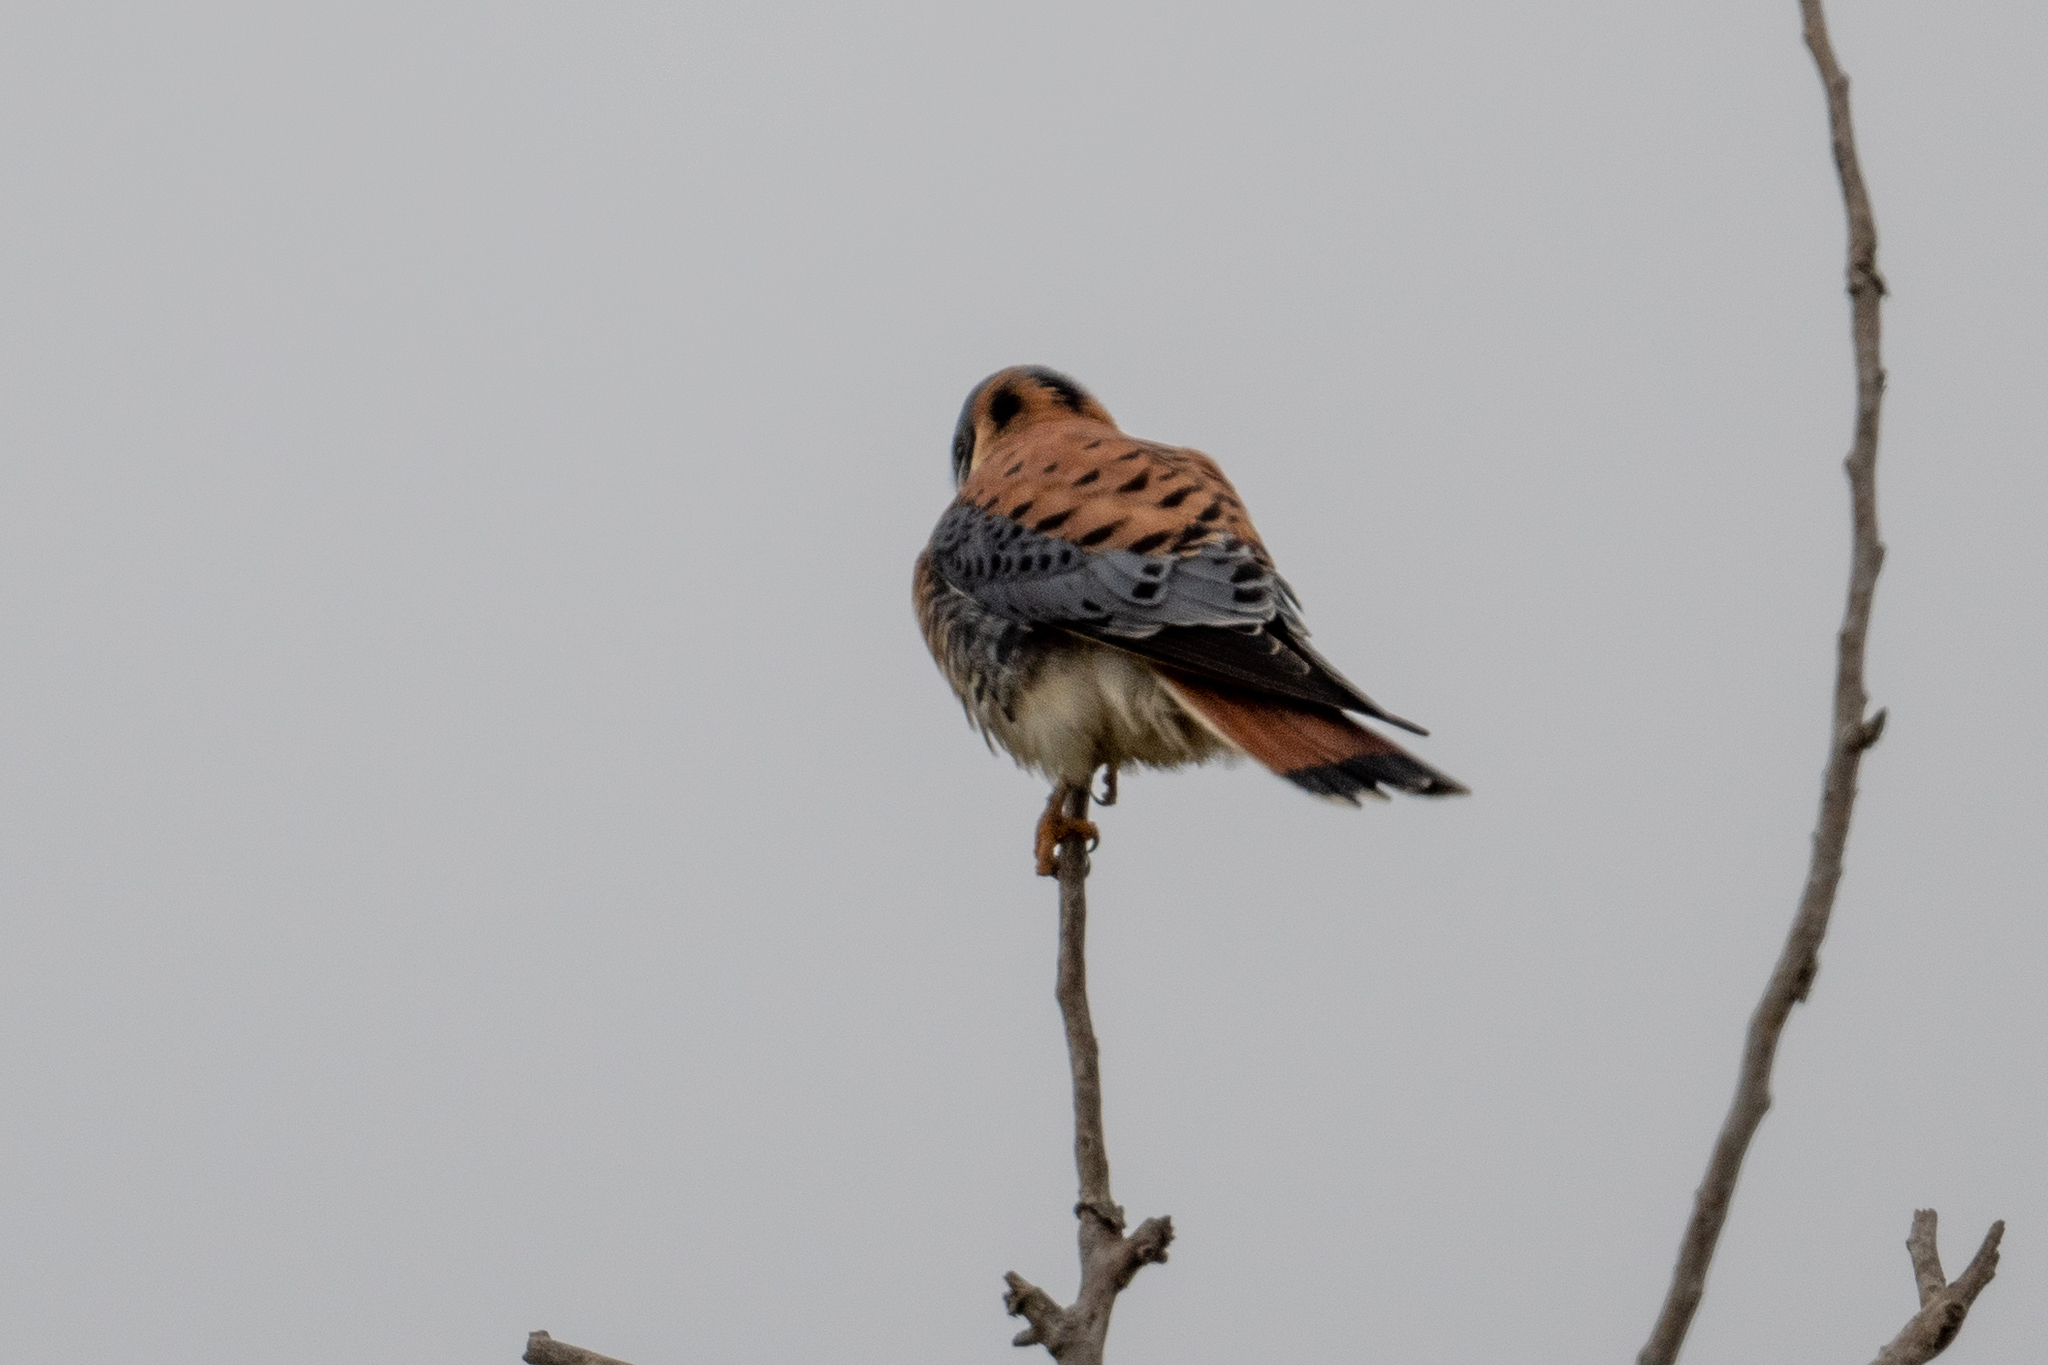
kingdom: Animalia
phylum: Chordata
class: Aves
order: Falconiformes
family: Falconidae
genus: Falco
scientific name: Falco sparverius
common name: American kestrel
